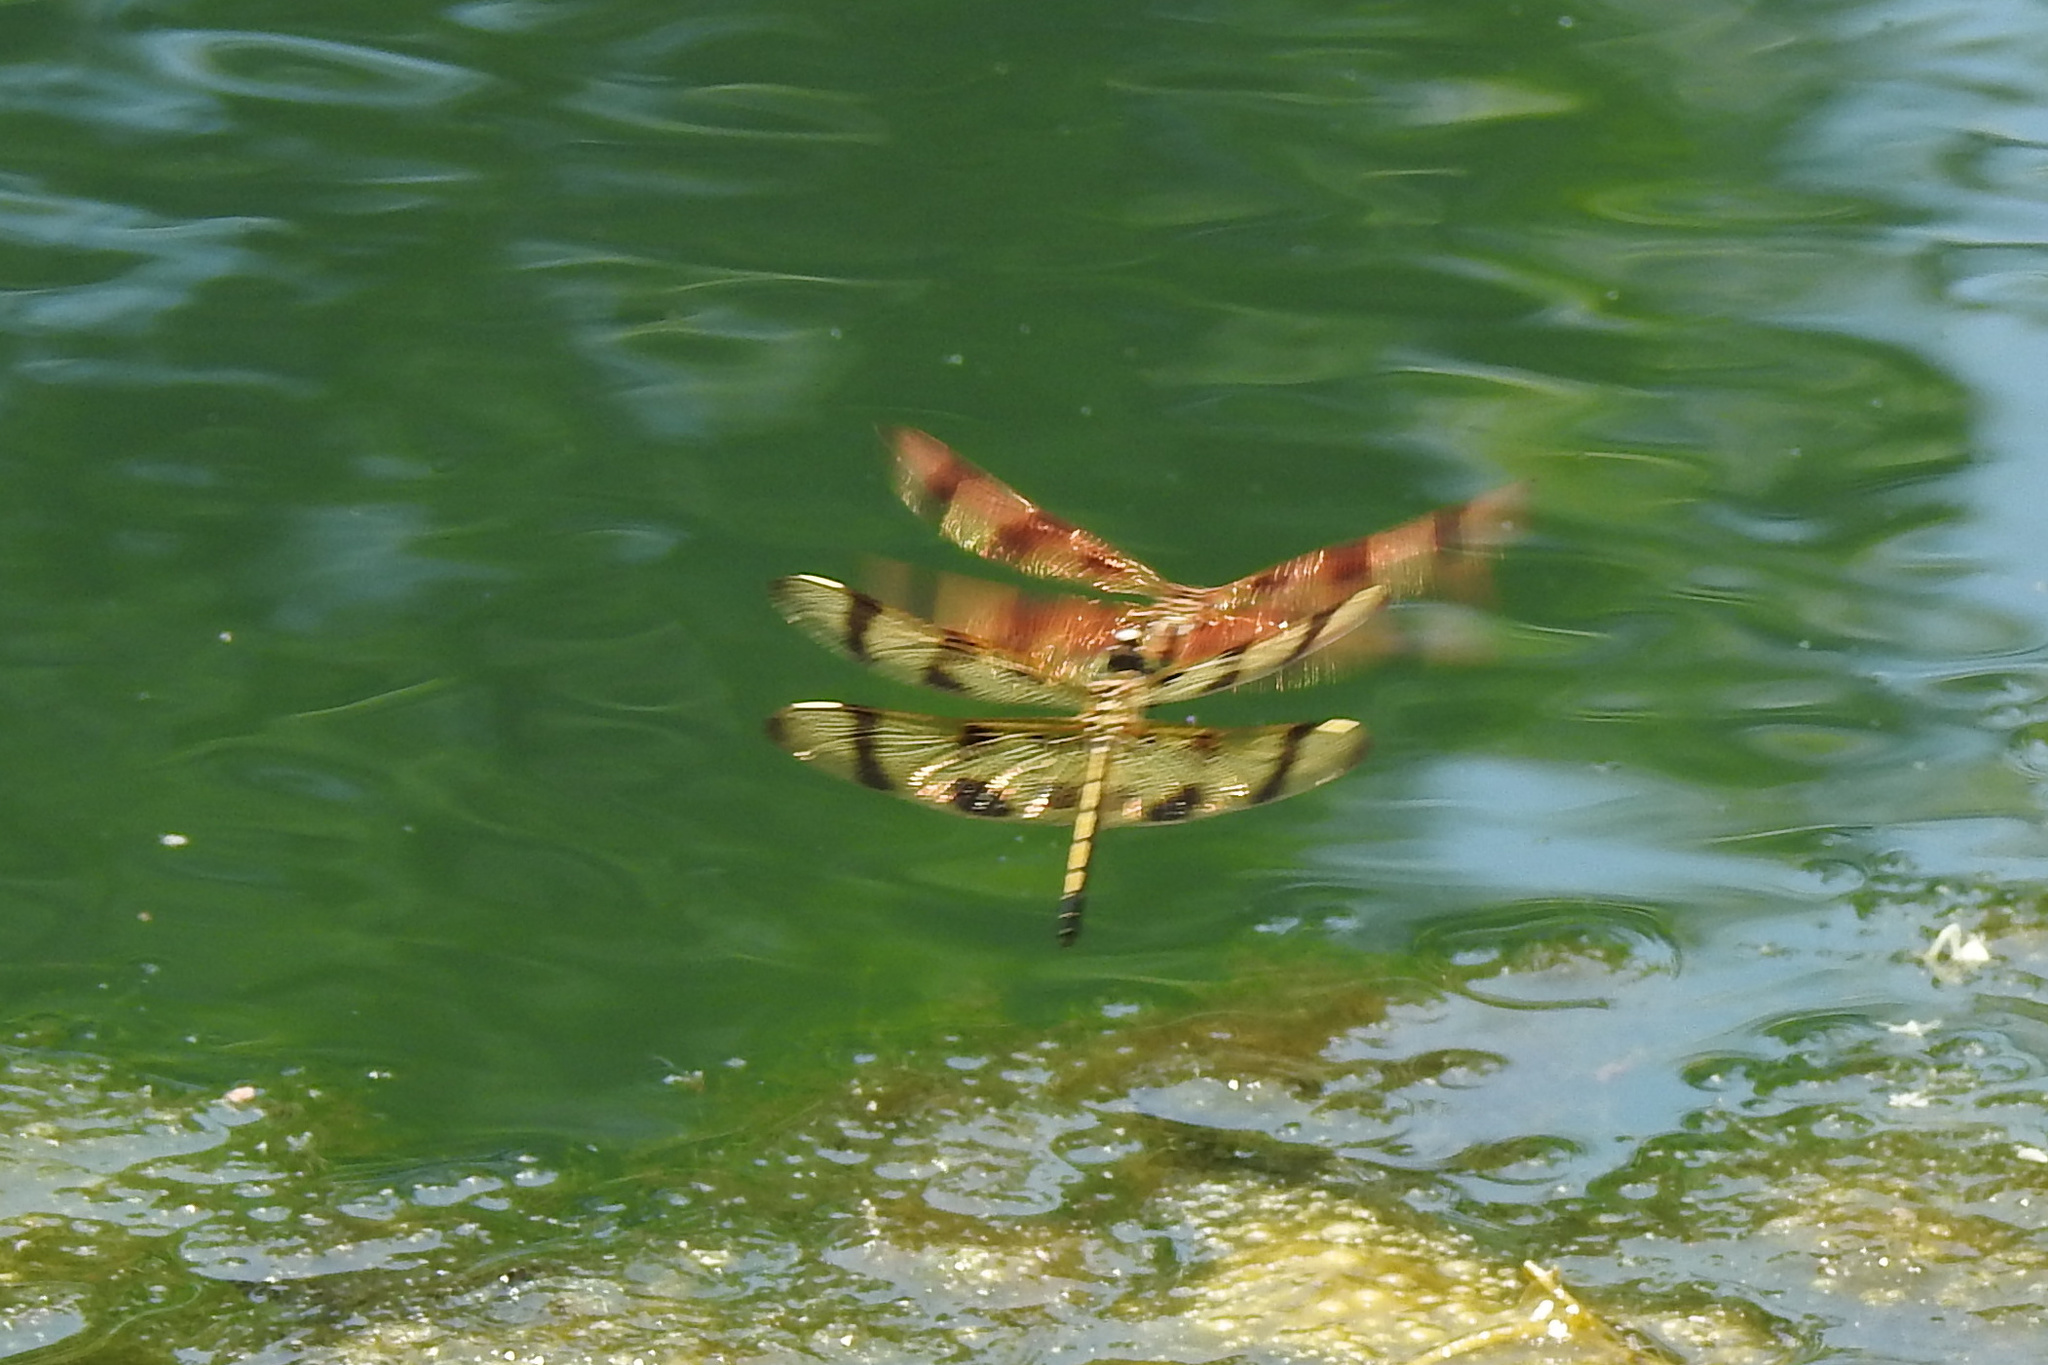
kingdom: Animalia
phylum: Arthropoda
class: Insecta
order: Odonata
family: Libellulidae
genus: Celithemis
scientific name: Celithemis eponina
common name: Halloween pennant
